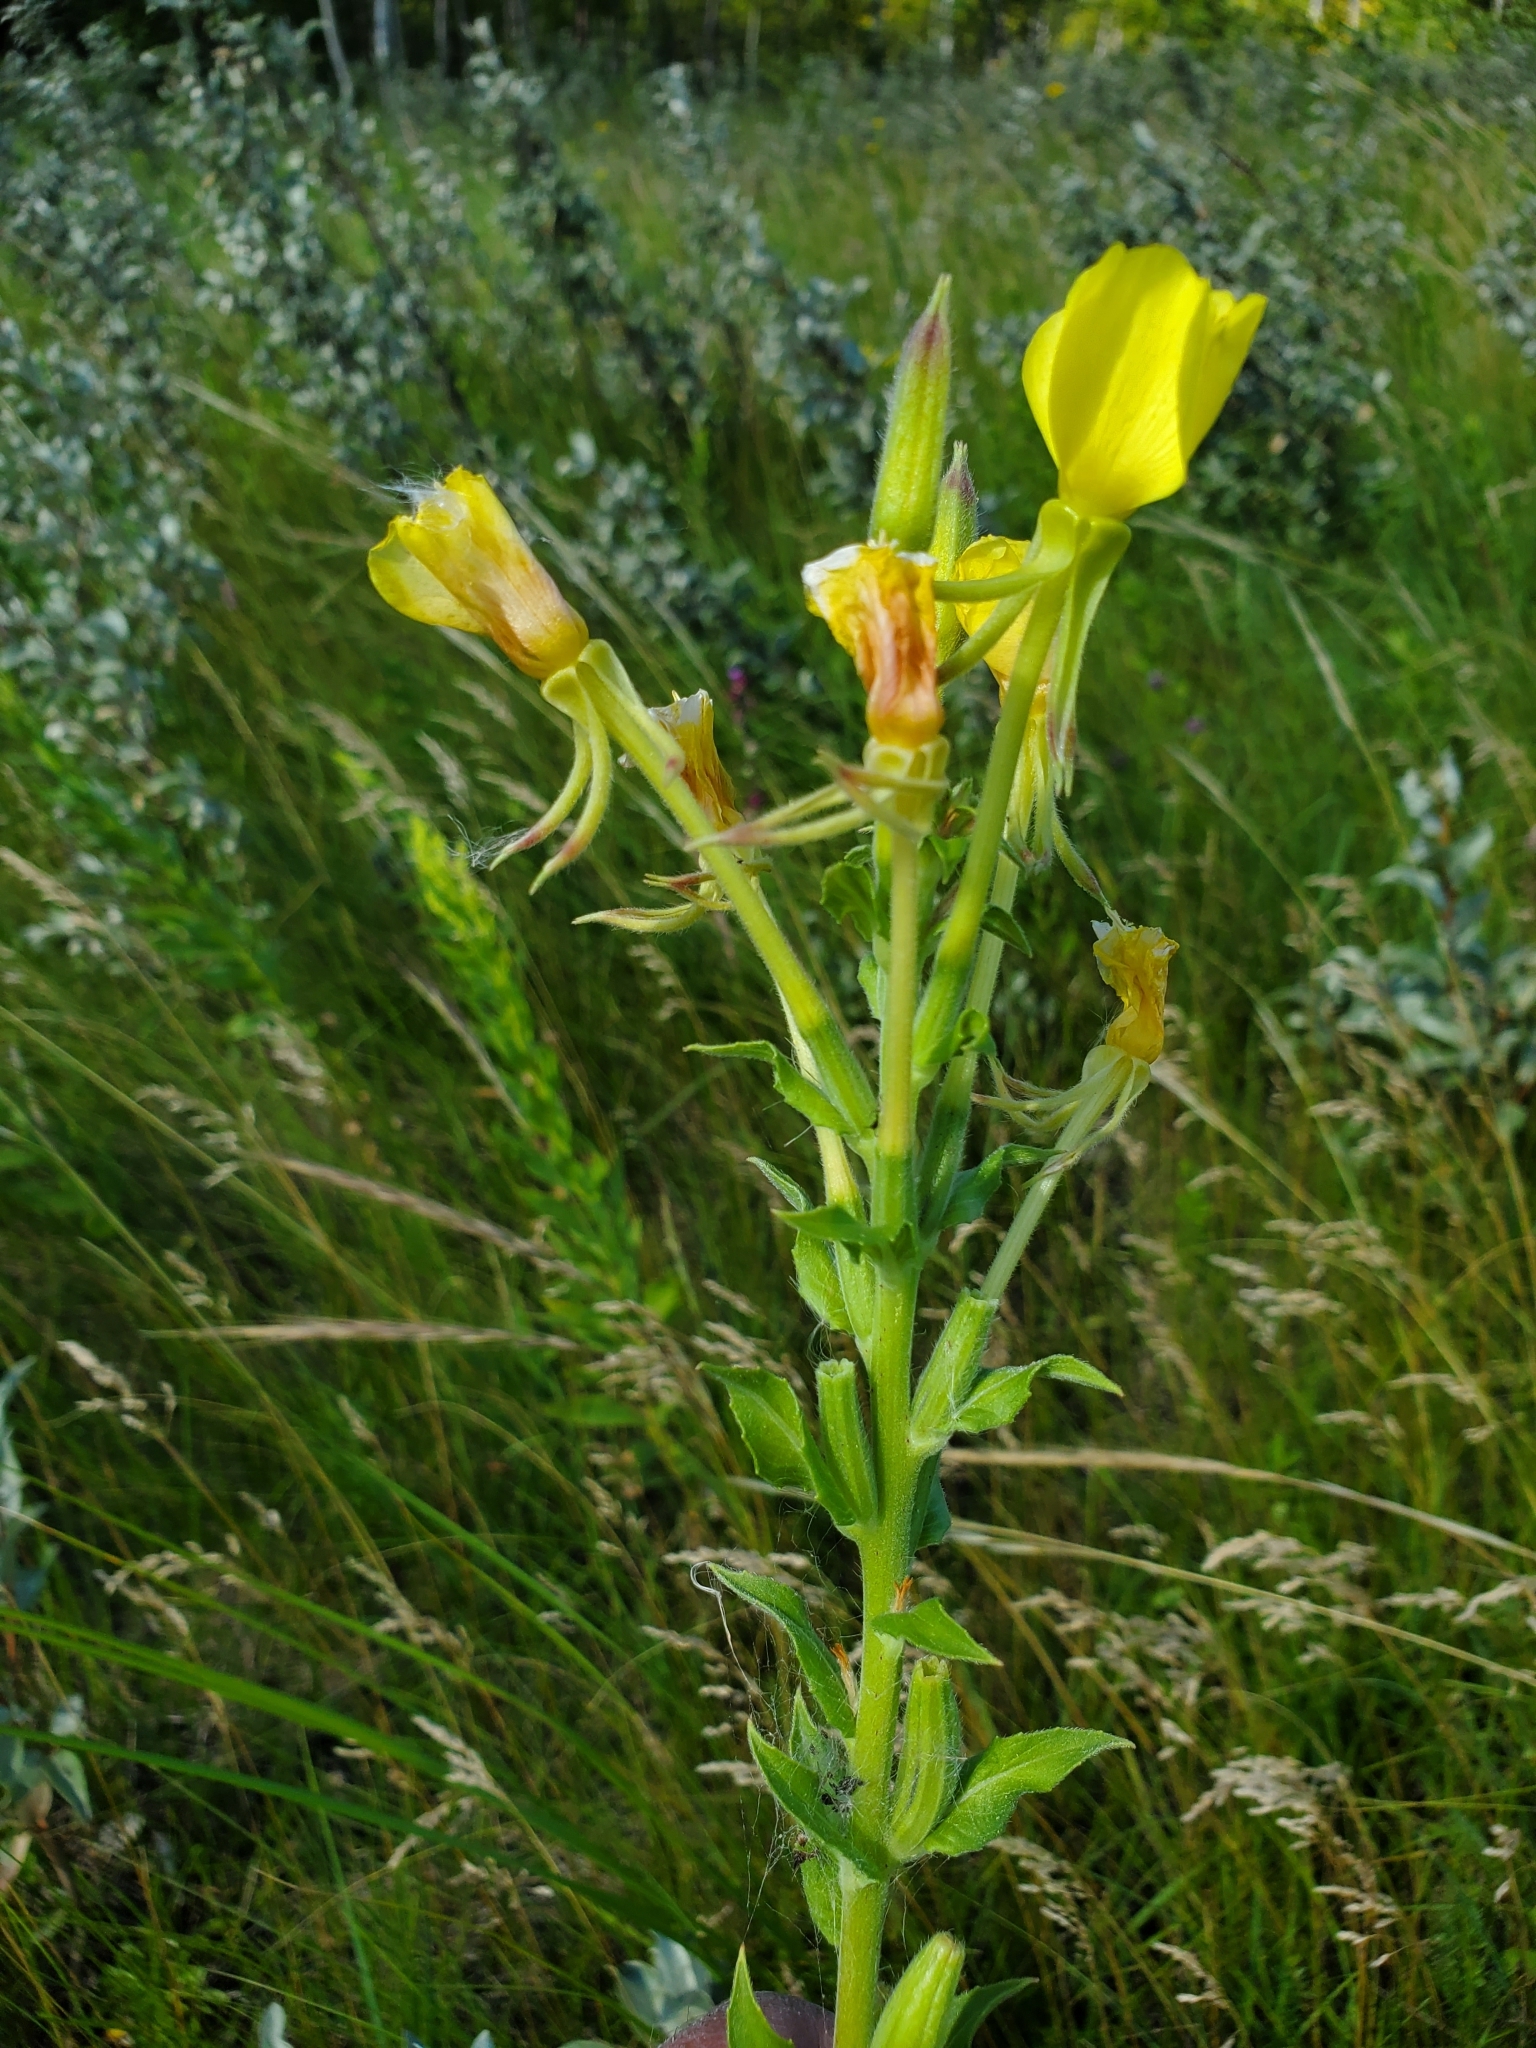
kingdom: Plantae
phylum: Tracheophyta
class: Magnoliopsida
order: Myrtales
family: Onagraceae
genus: Oenothera
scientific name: Oenothera biennis
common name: Common evening-primrose
